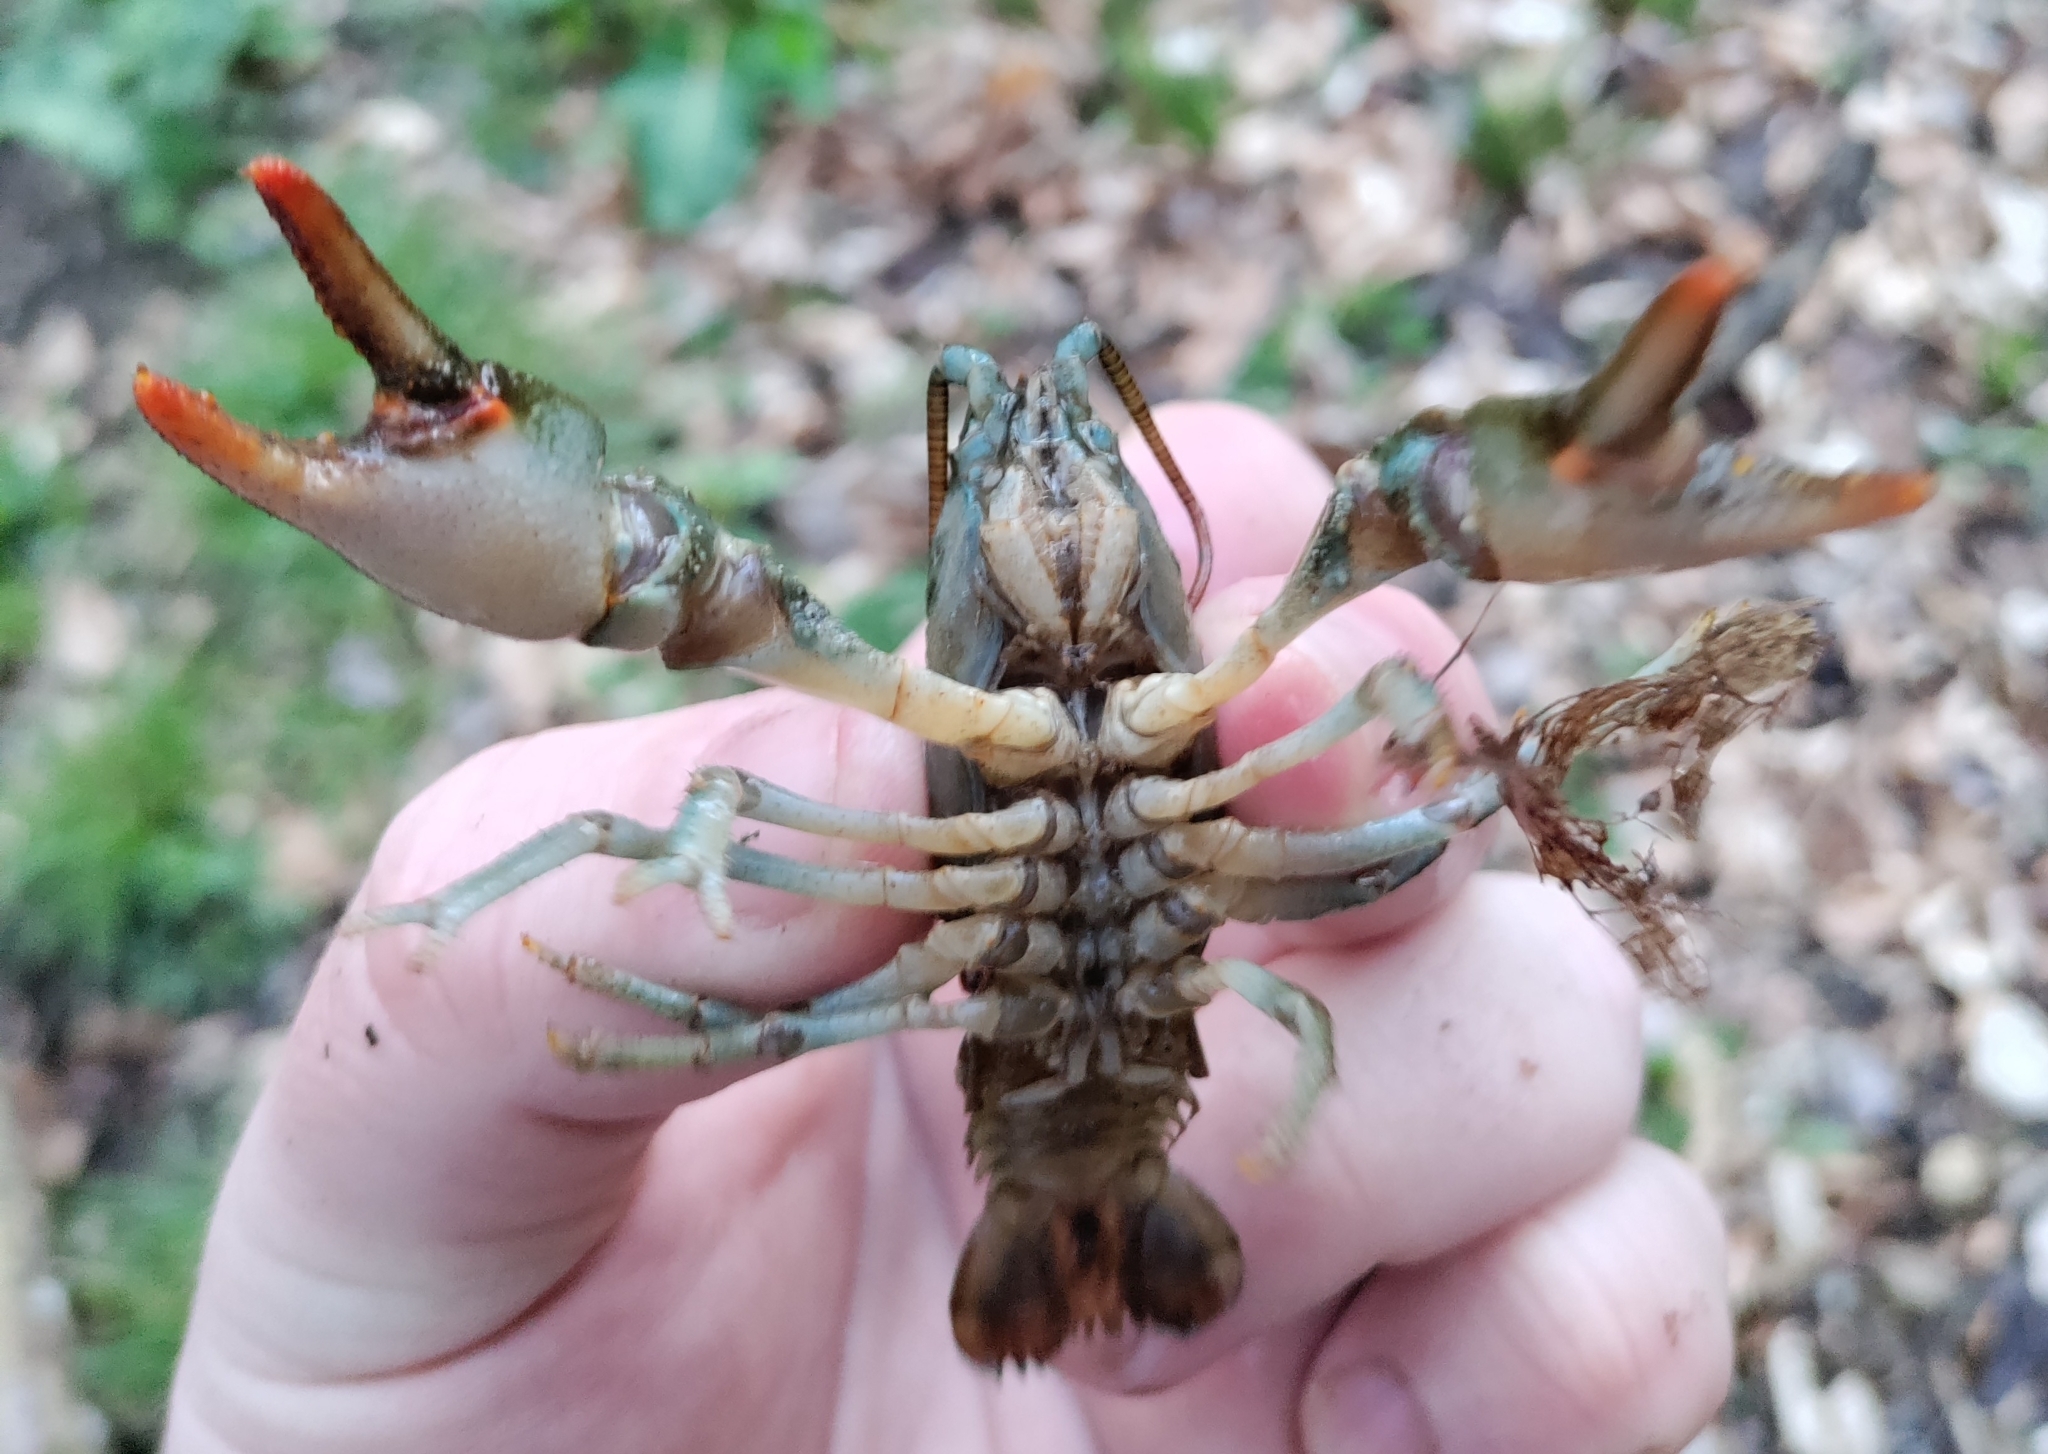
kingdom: Animalia
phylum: Arthropoda
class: Malacostraca
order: Decapoda
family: Astacidae
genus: Austropotamobius
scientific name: Austropotamobius torrentium
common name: Stone crayfish
